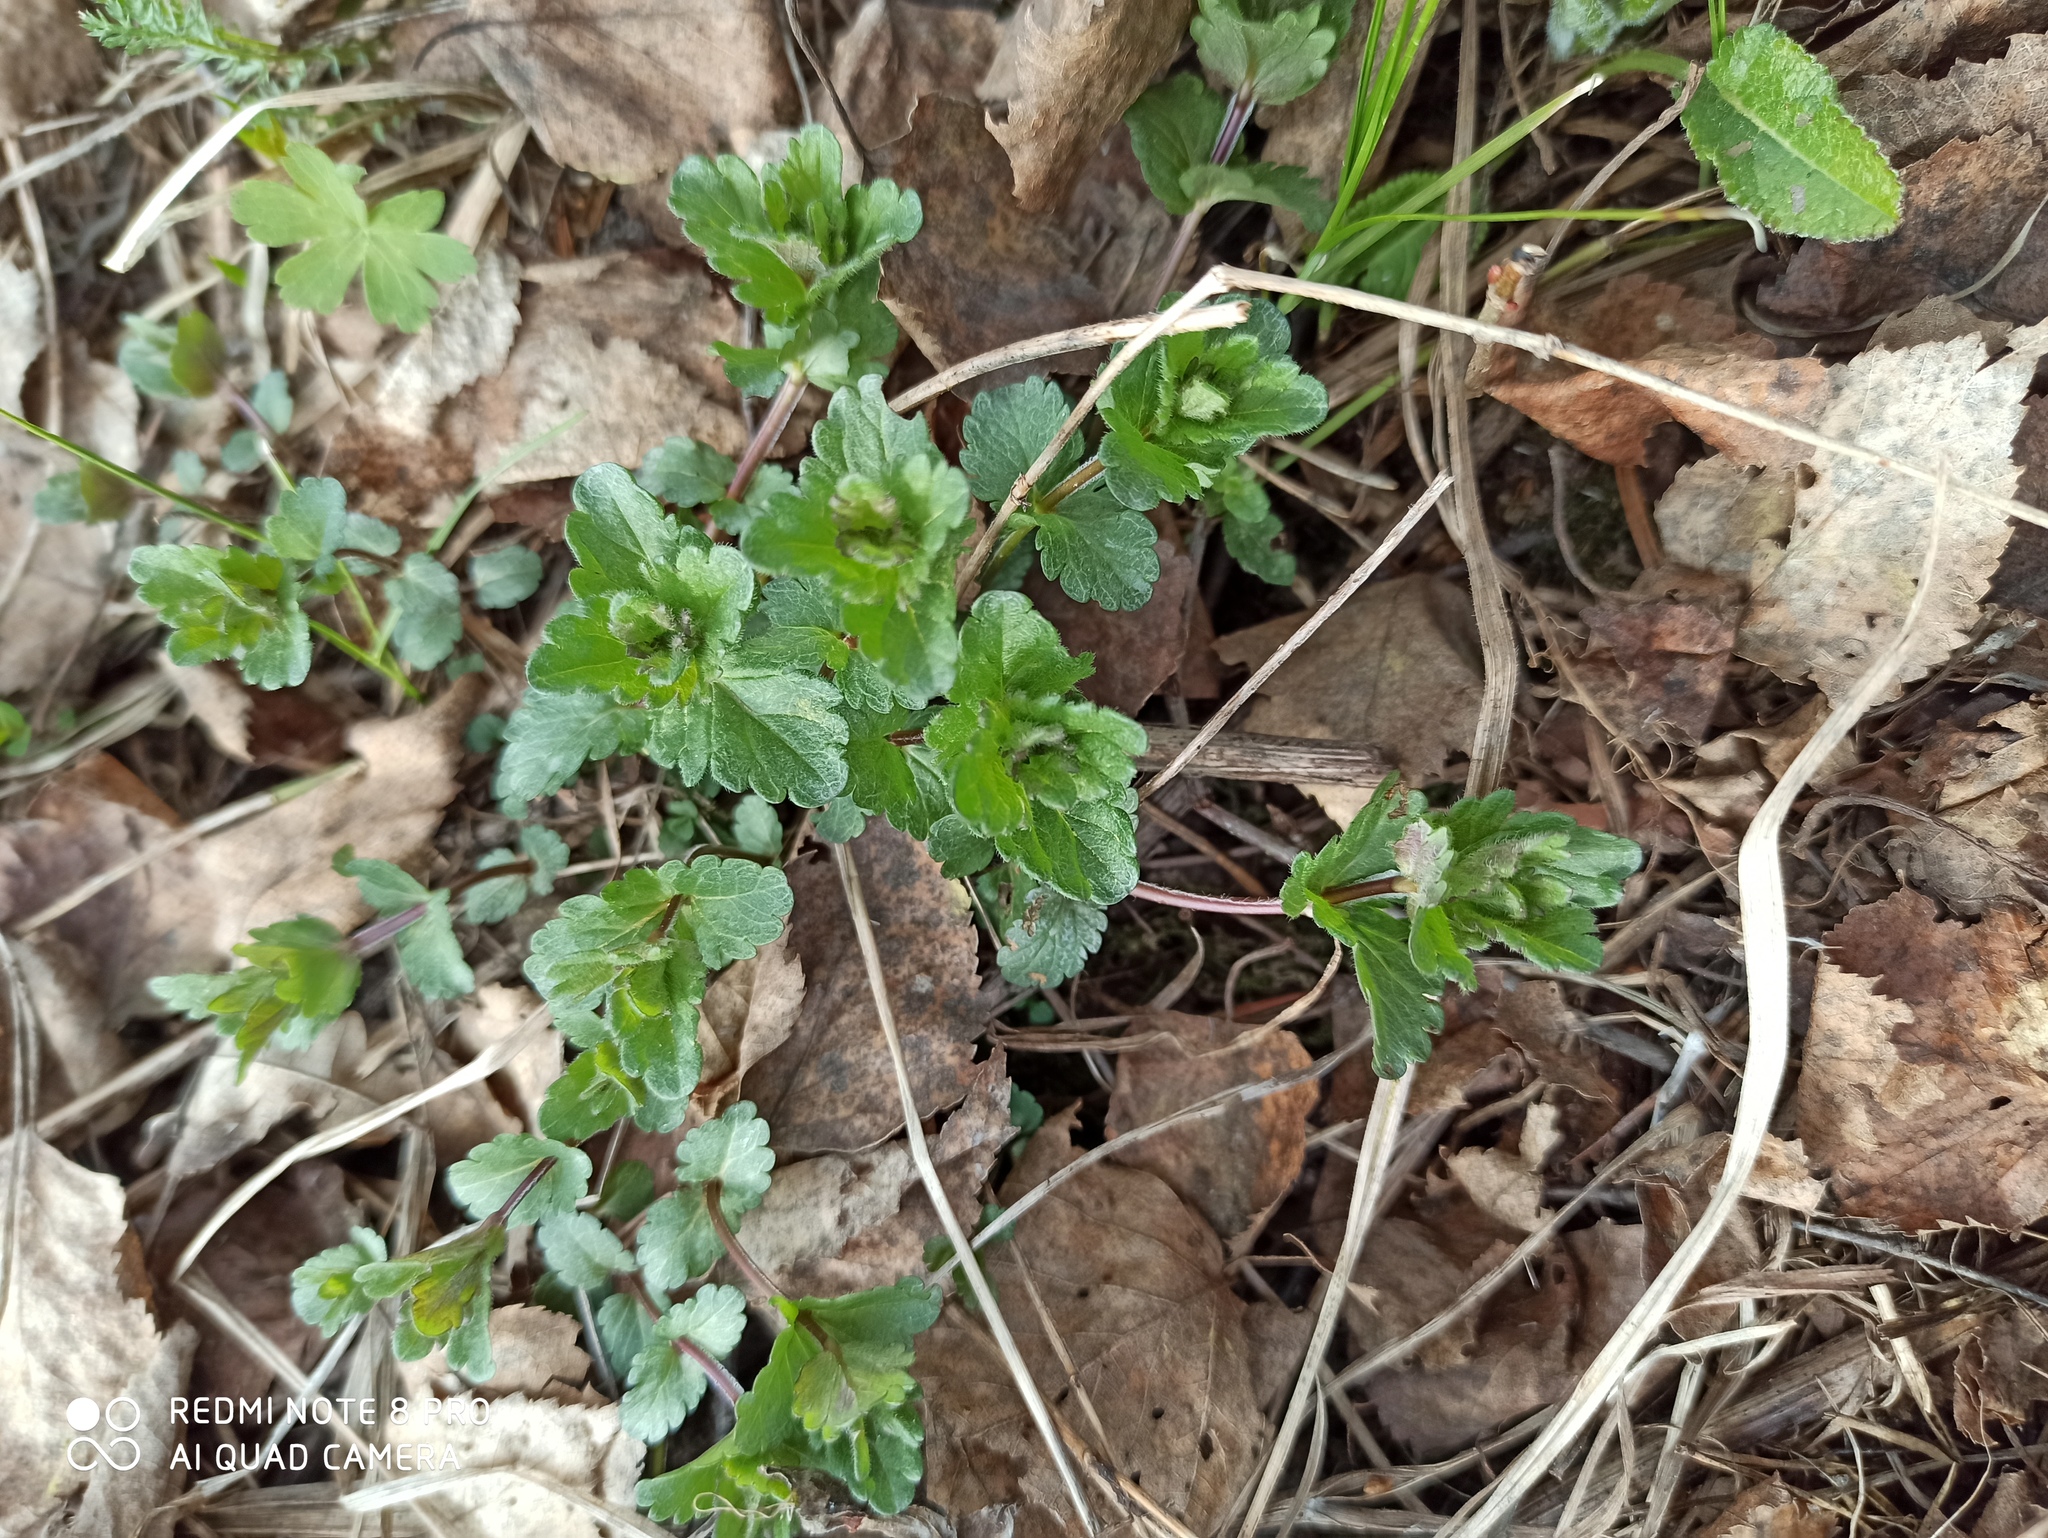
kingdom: Plantae
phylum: Tracheophyta
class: Magnoliopsida
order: Lamiales
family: Plantaginaceae
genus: Veronica
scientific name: Veronica chamaedrys
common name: Germander speedwell
